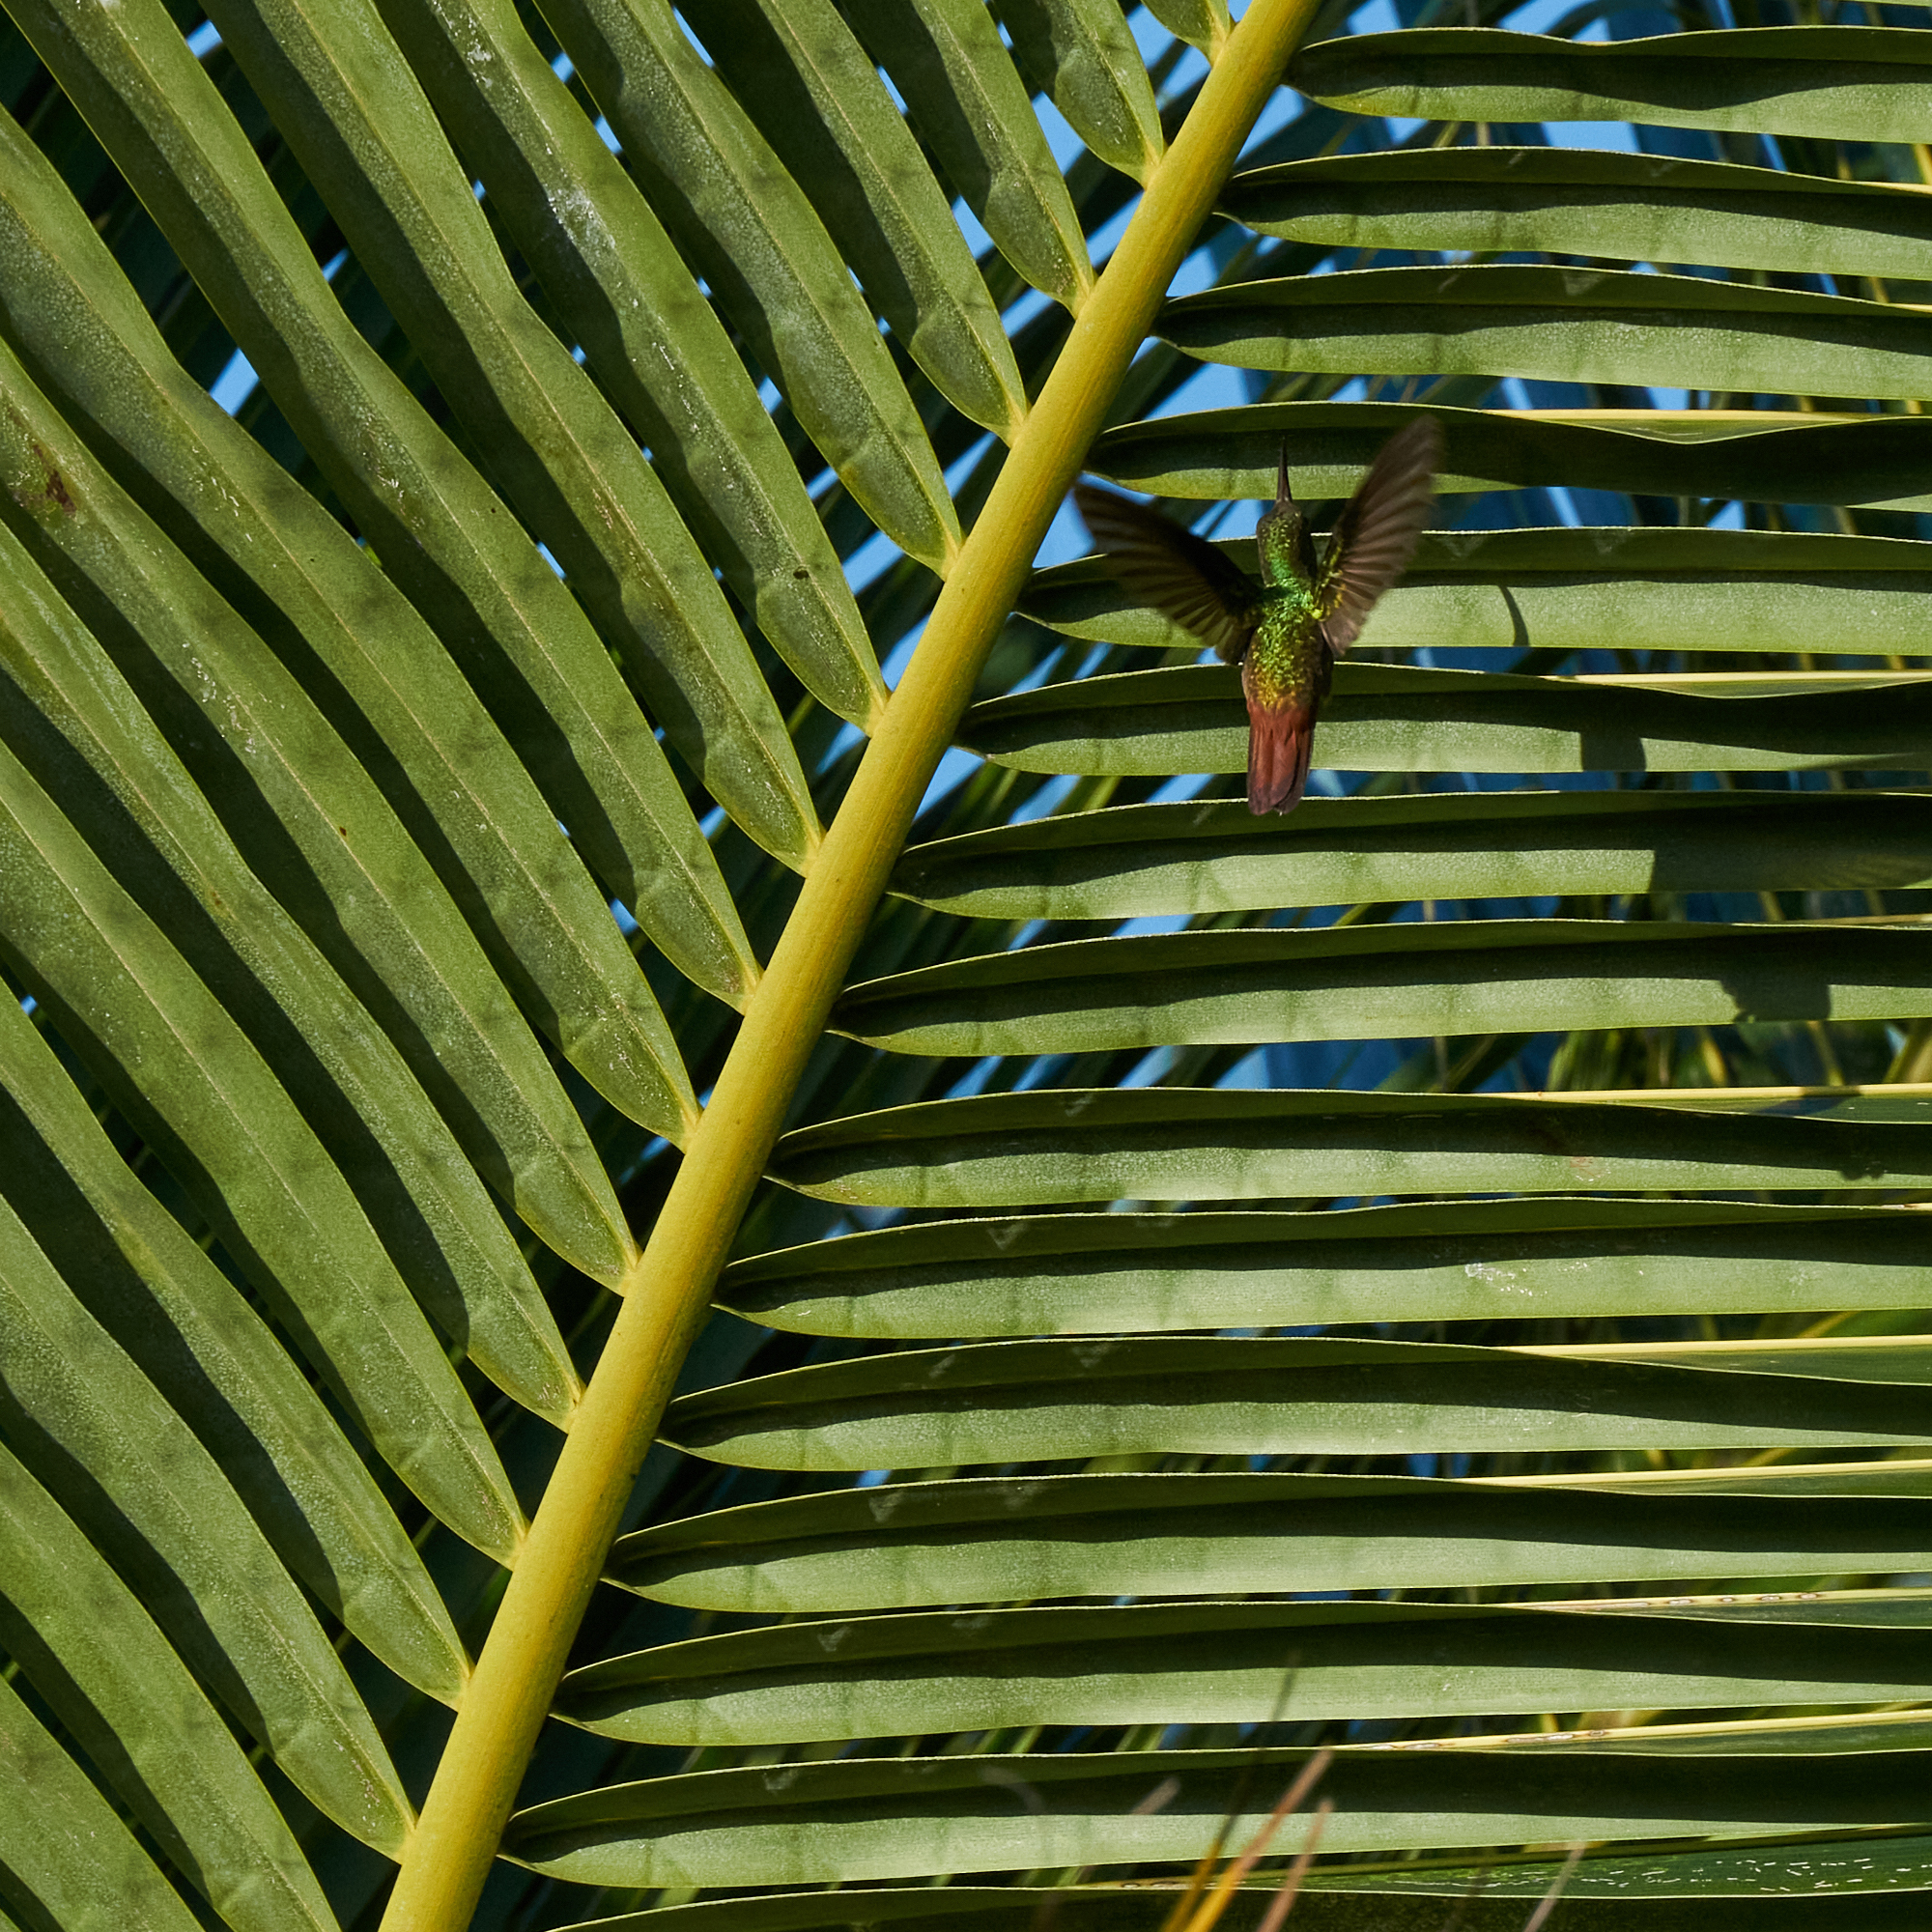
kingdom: Animalia
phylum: Chordata
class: Aves
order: Apodiformes
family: Trochilidae
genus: Amazilia
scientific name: Amazilia tzacatl
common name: Rufous-tailed hummingbird
